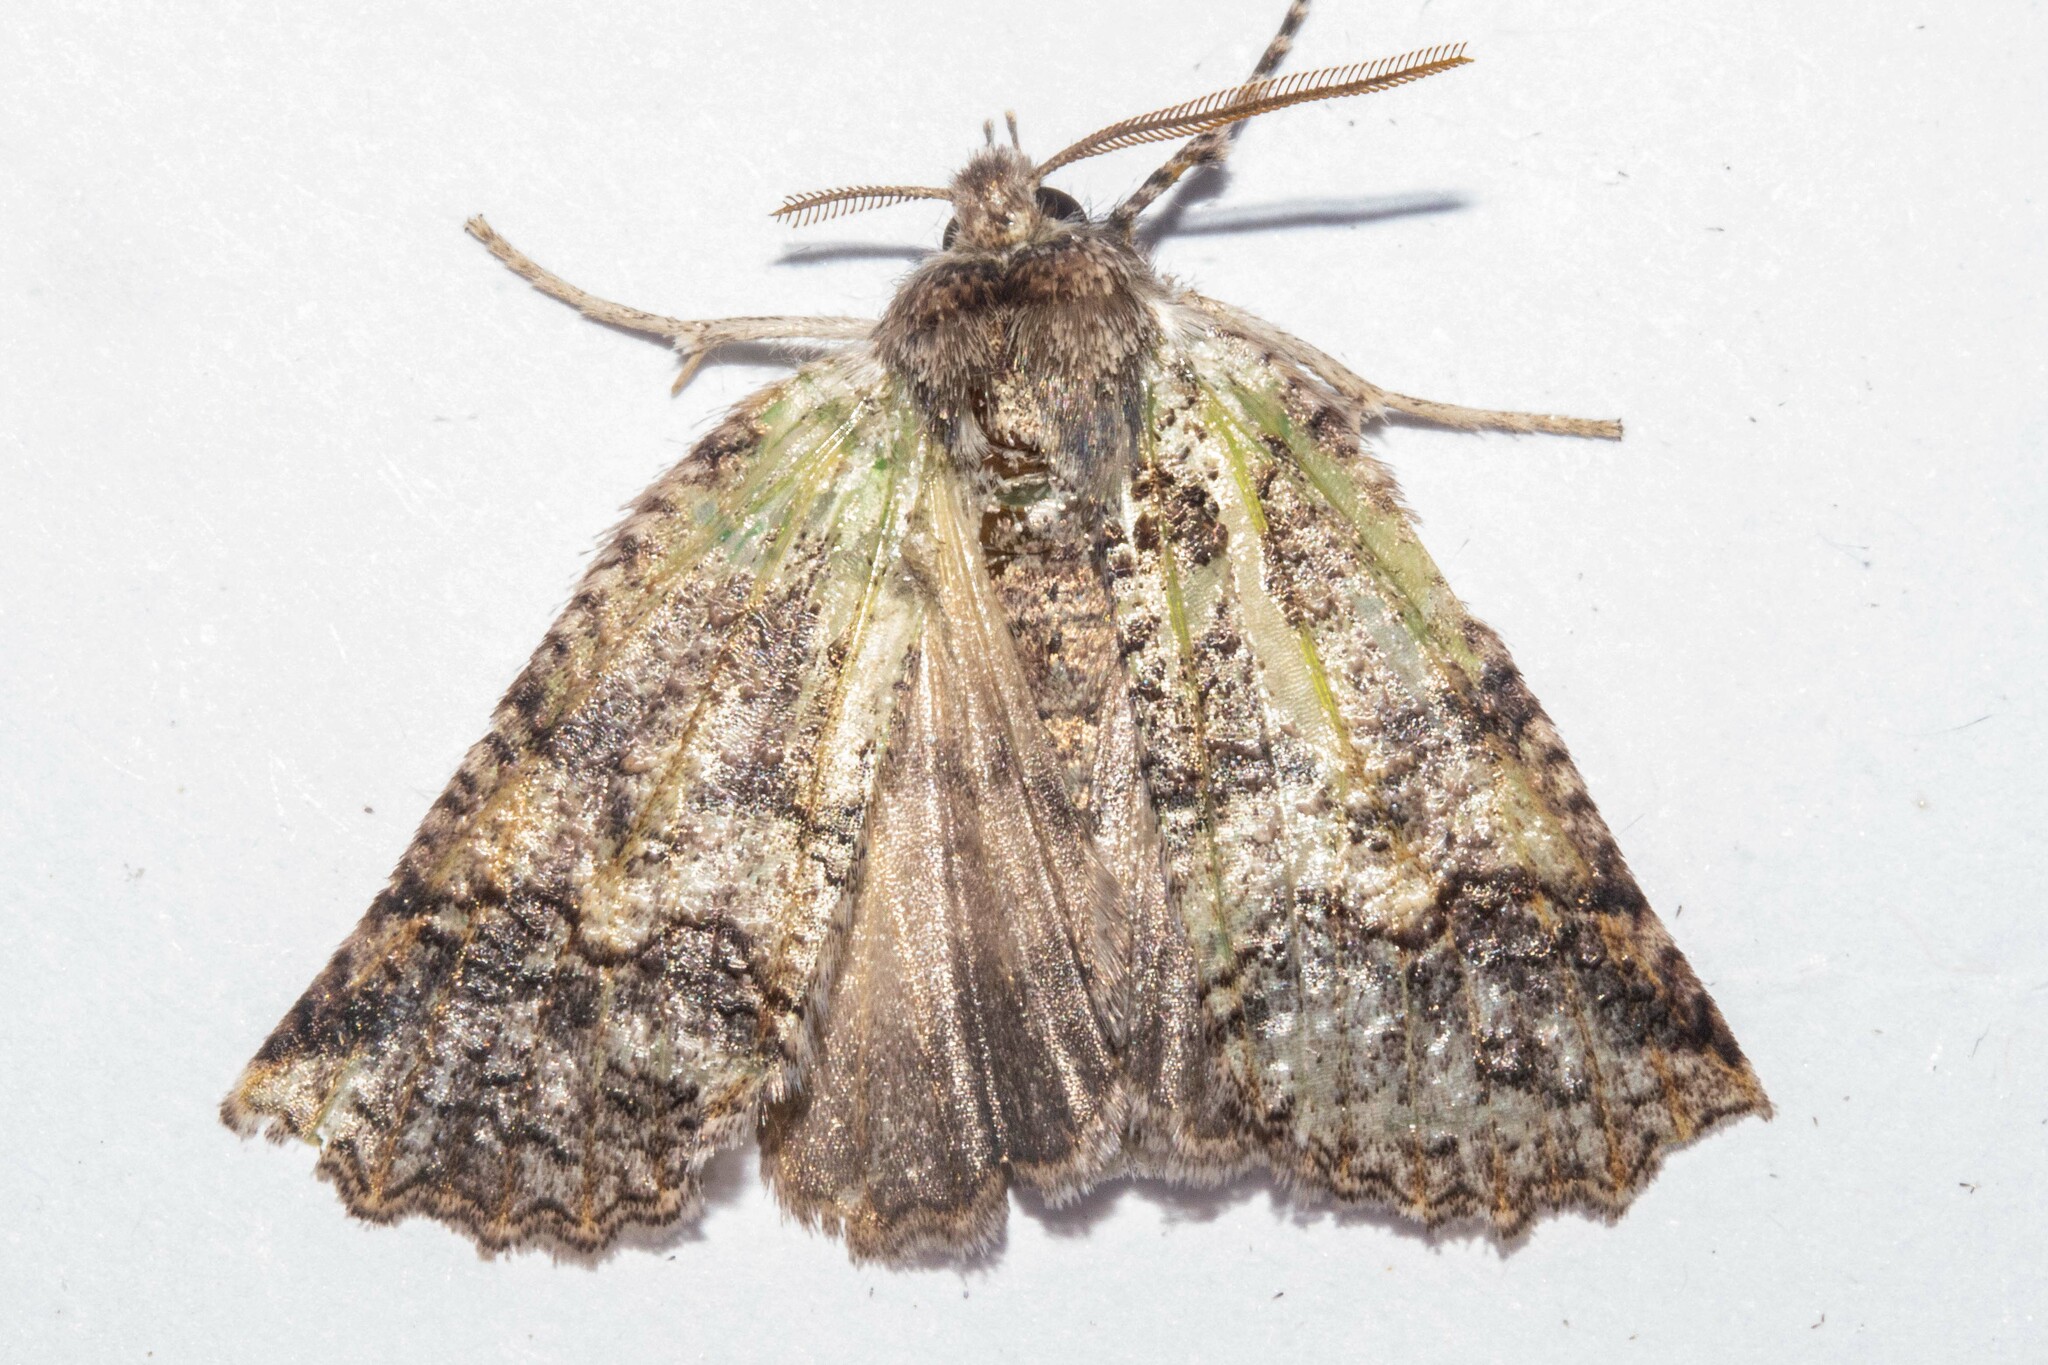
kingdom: Animalia
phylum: Arthropoda
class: Insecta
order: Lepidoptera
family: Geometridae
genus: Declana
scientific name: Declana floccosa
